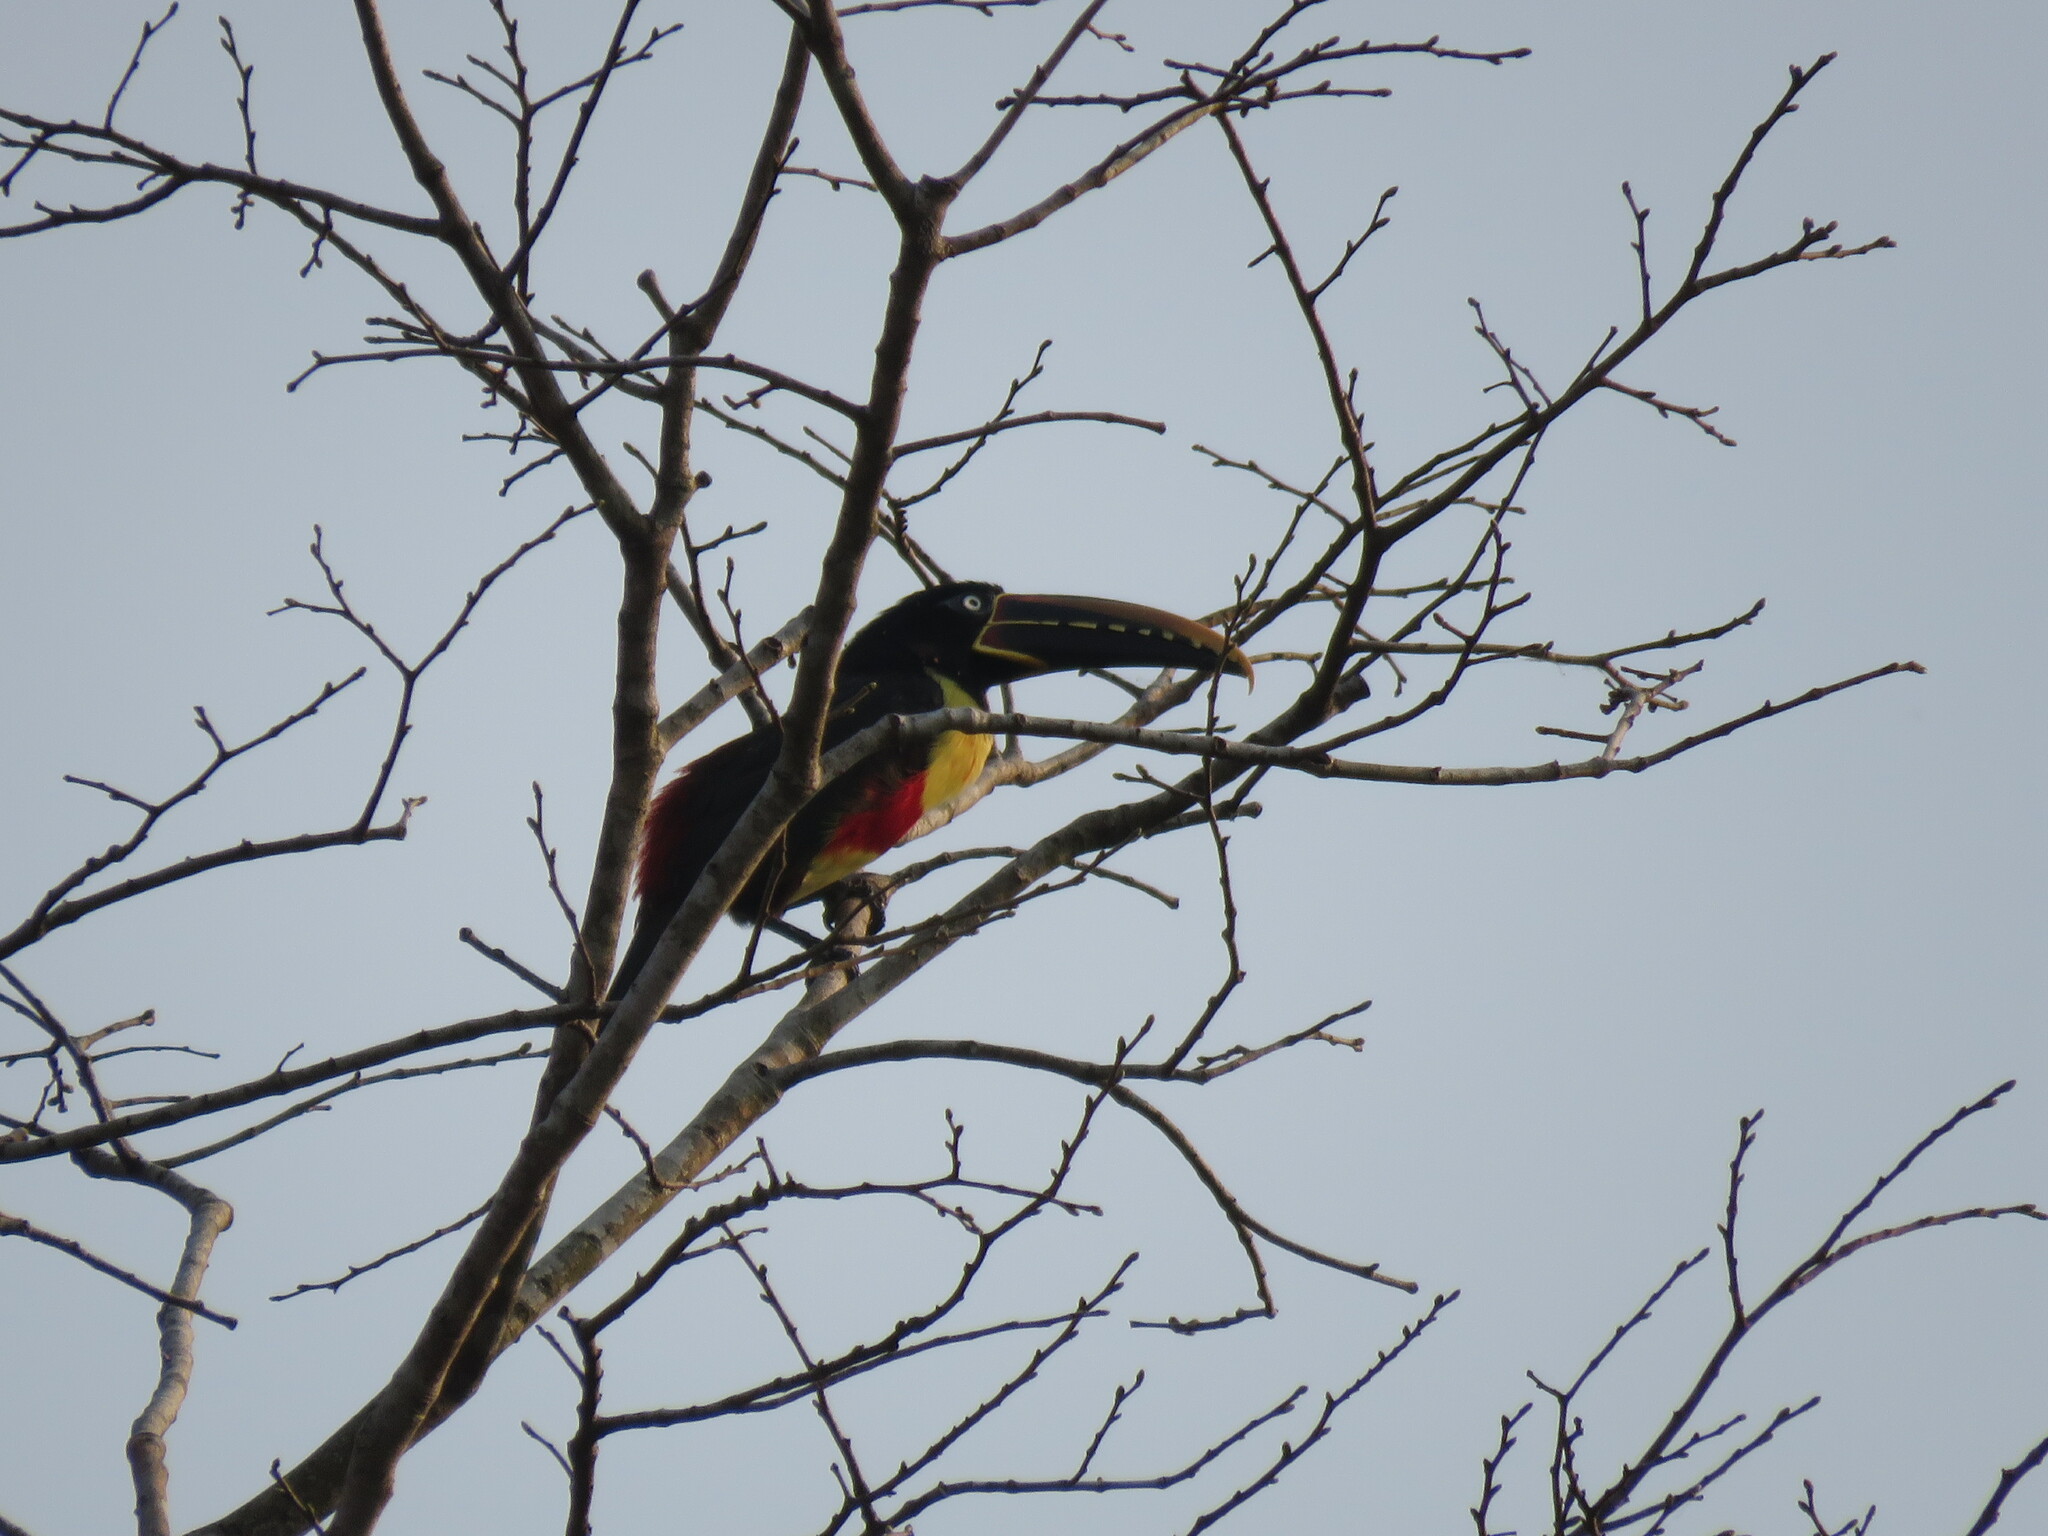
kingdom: Animalia
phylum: Chordata
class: Aves
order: Piciformes
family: Ramphastidae
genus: Pteroglossus
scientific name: Pteroglossus castanotis
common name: Chestnut-eared aracari
